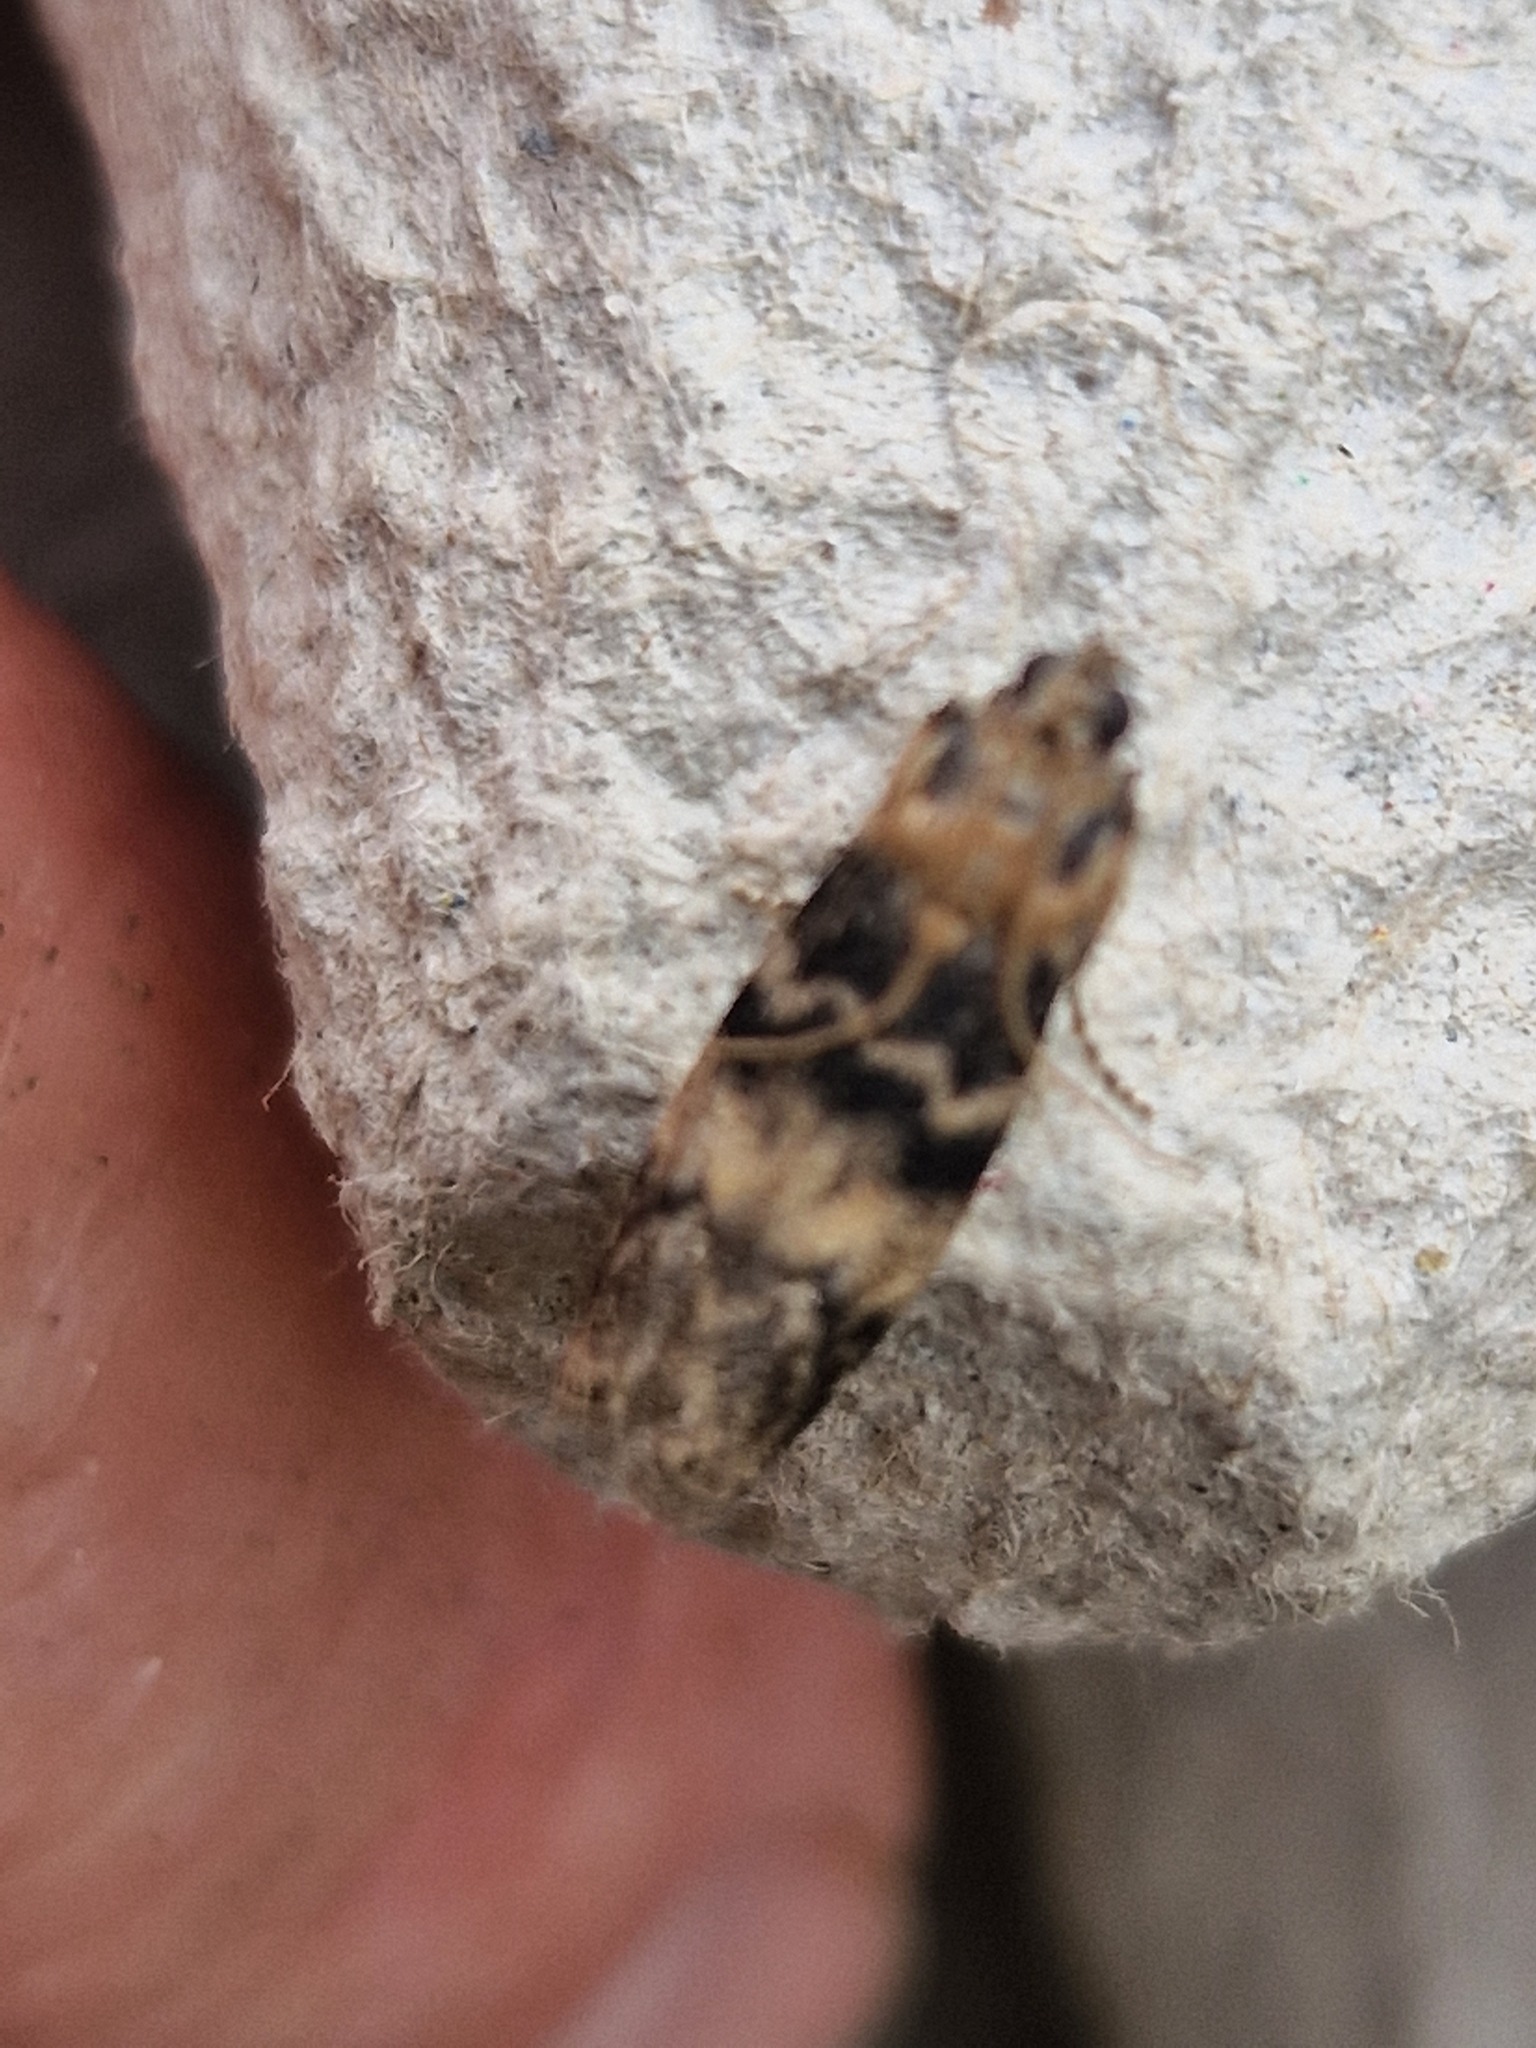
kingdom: Animalia
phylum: Arthropoda
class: Insecta
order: Lepidoptera
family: Pyralidae
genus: Euzophera
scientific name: Euzophera pinguis
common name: Ash-bark knot-horn
